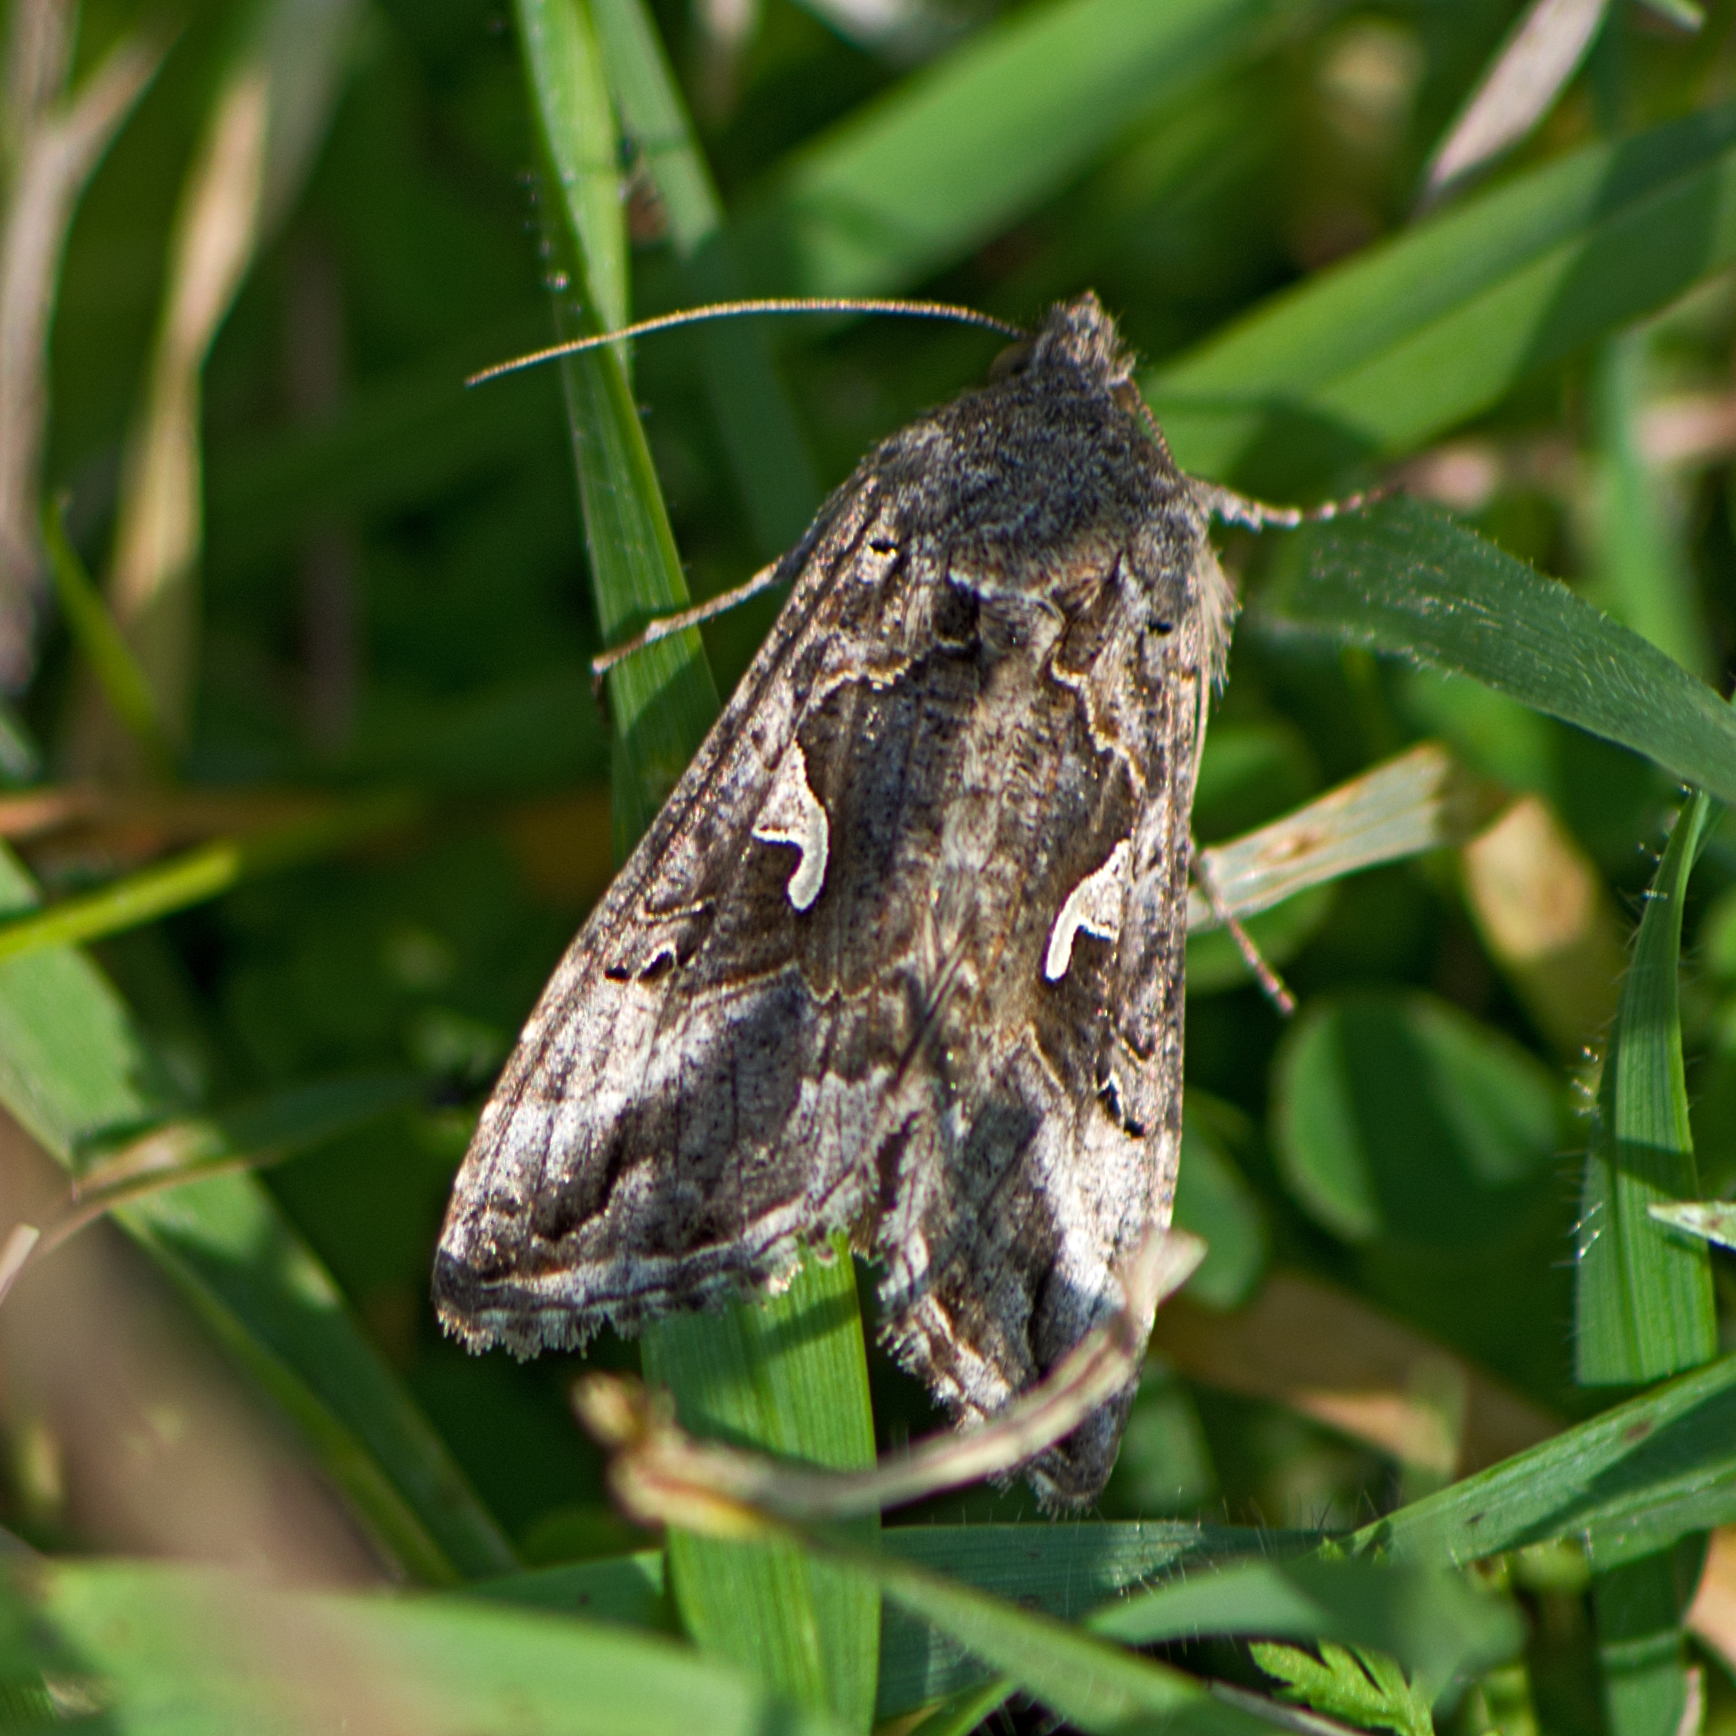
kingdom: Animalia
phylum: Arthropoda
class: Insecta
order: Lepidoptera
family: Noctuidae
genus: Autographa
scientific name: Autographa gamma
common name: Silver y
